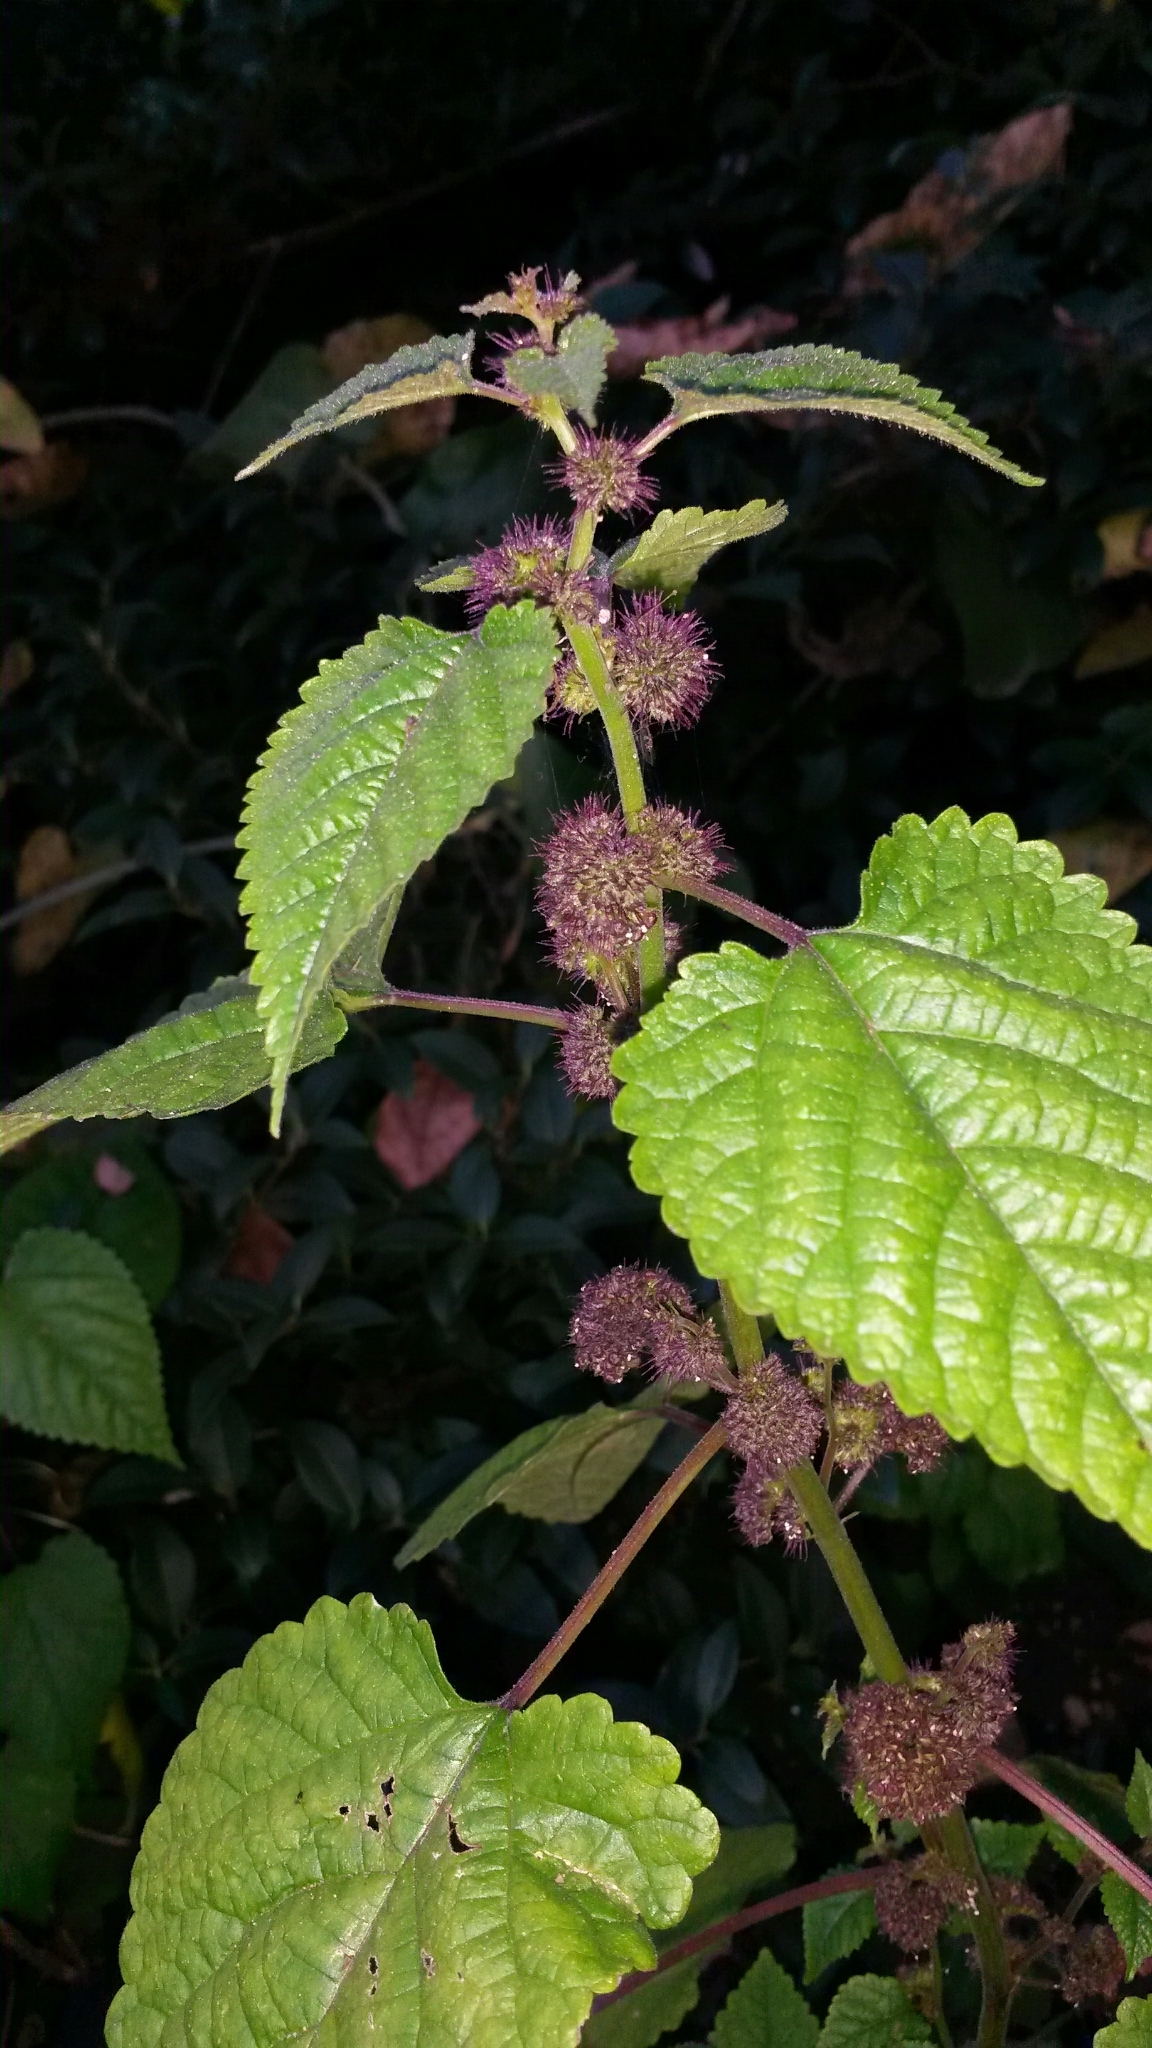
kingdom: Plantae
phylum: Tracheophyta
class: Magnoliopsida
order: Rosales
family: Moraceae
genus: Fatoua
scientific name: Fatoua villosa
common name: Hairy crabweed
